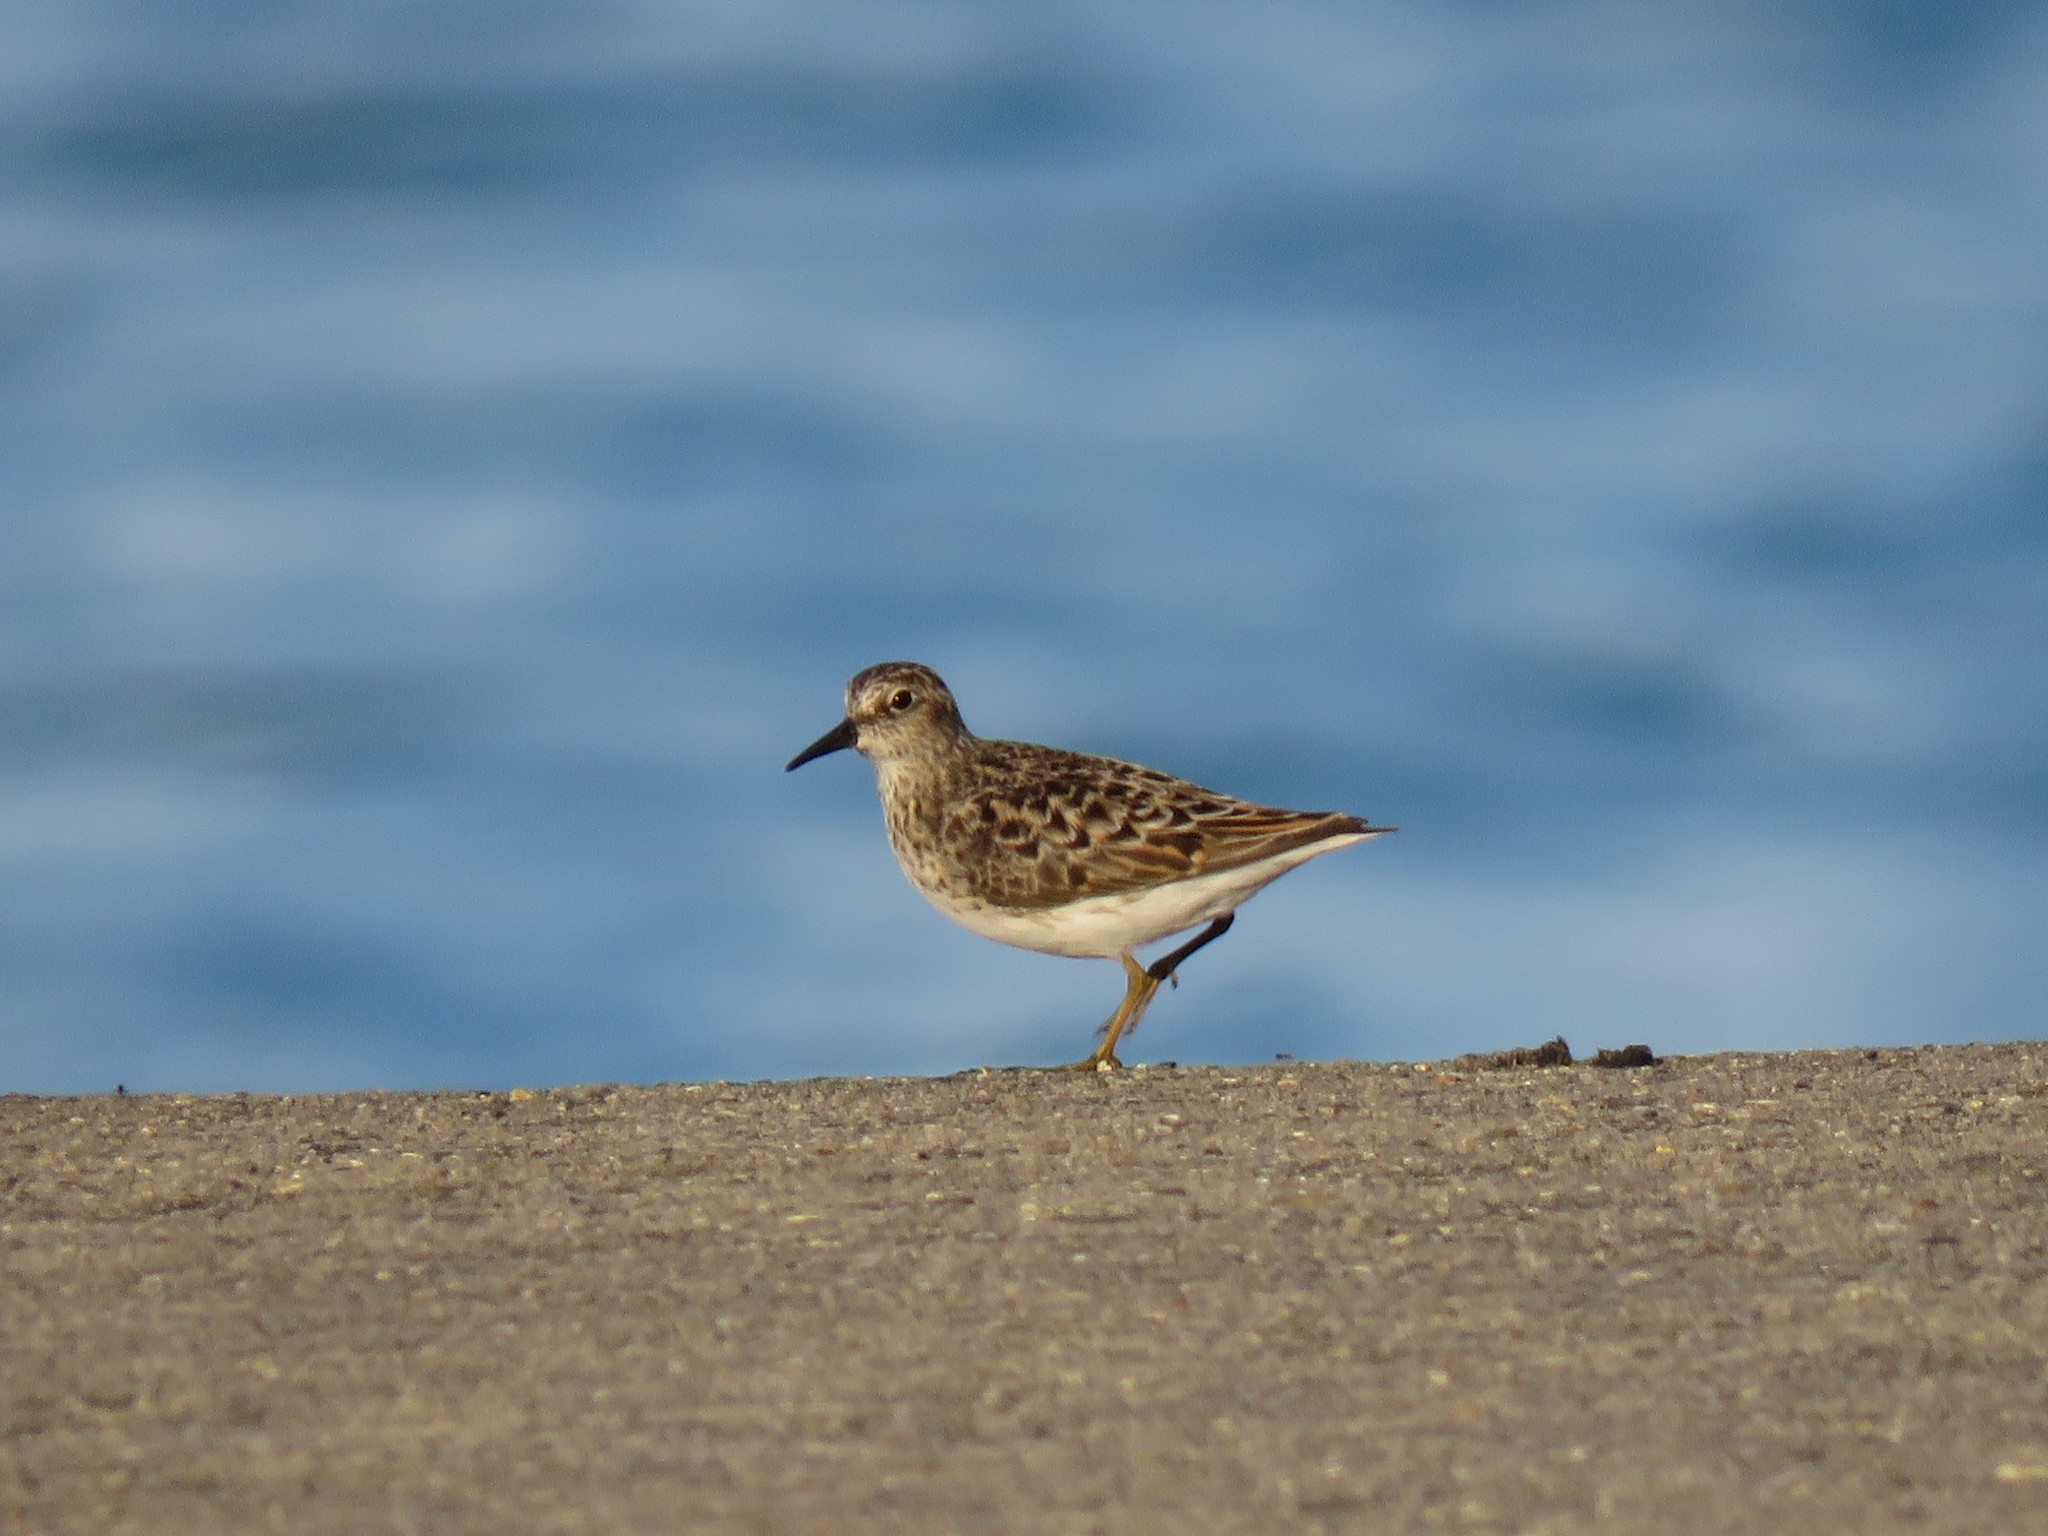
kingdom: Animalia
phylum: Chordata
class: Aves
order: Charadriiformes
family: Scolopacidae
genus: Calidris
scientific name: Calidris minutilla
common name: Least sandpiper
